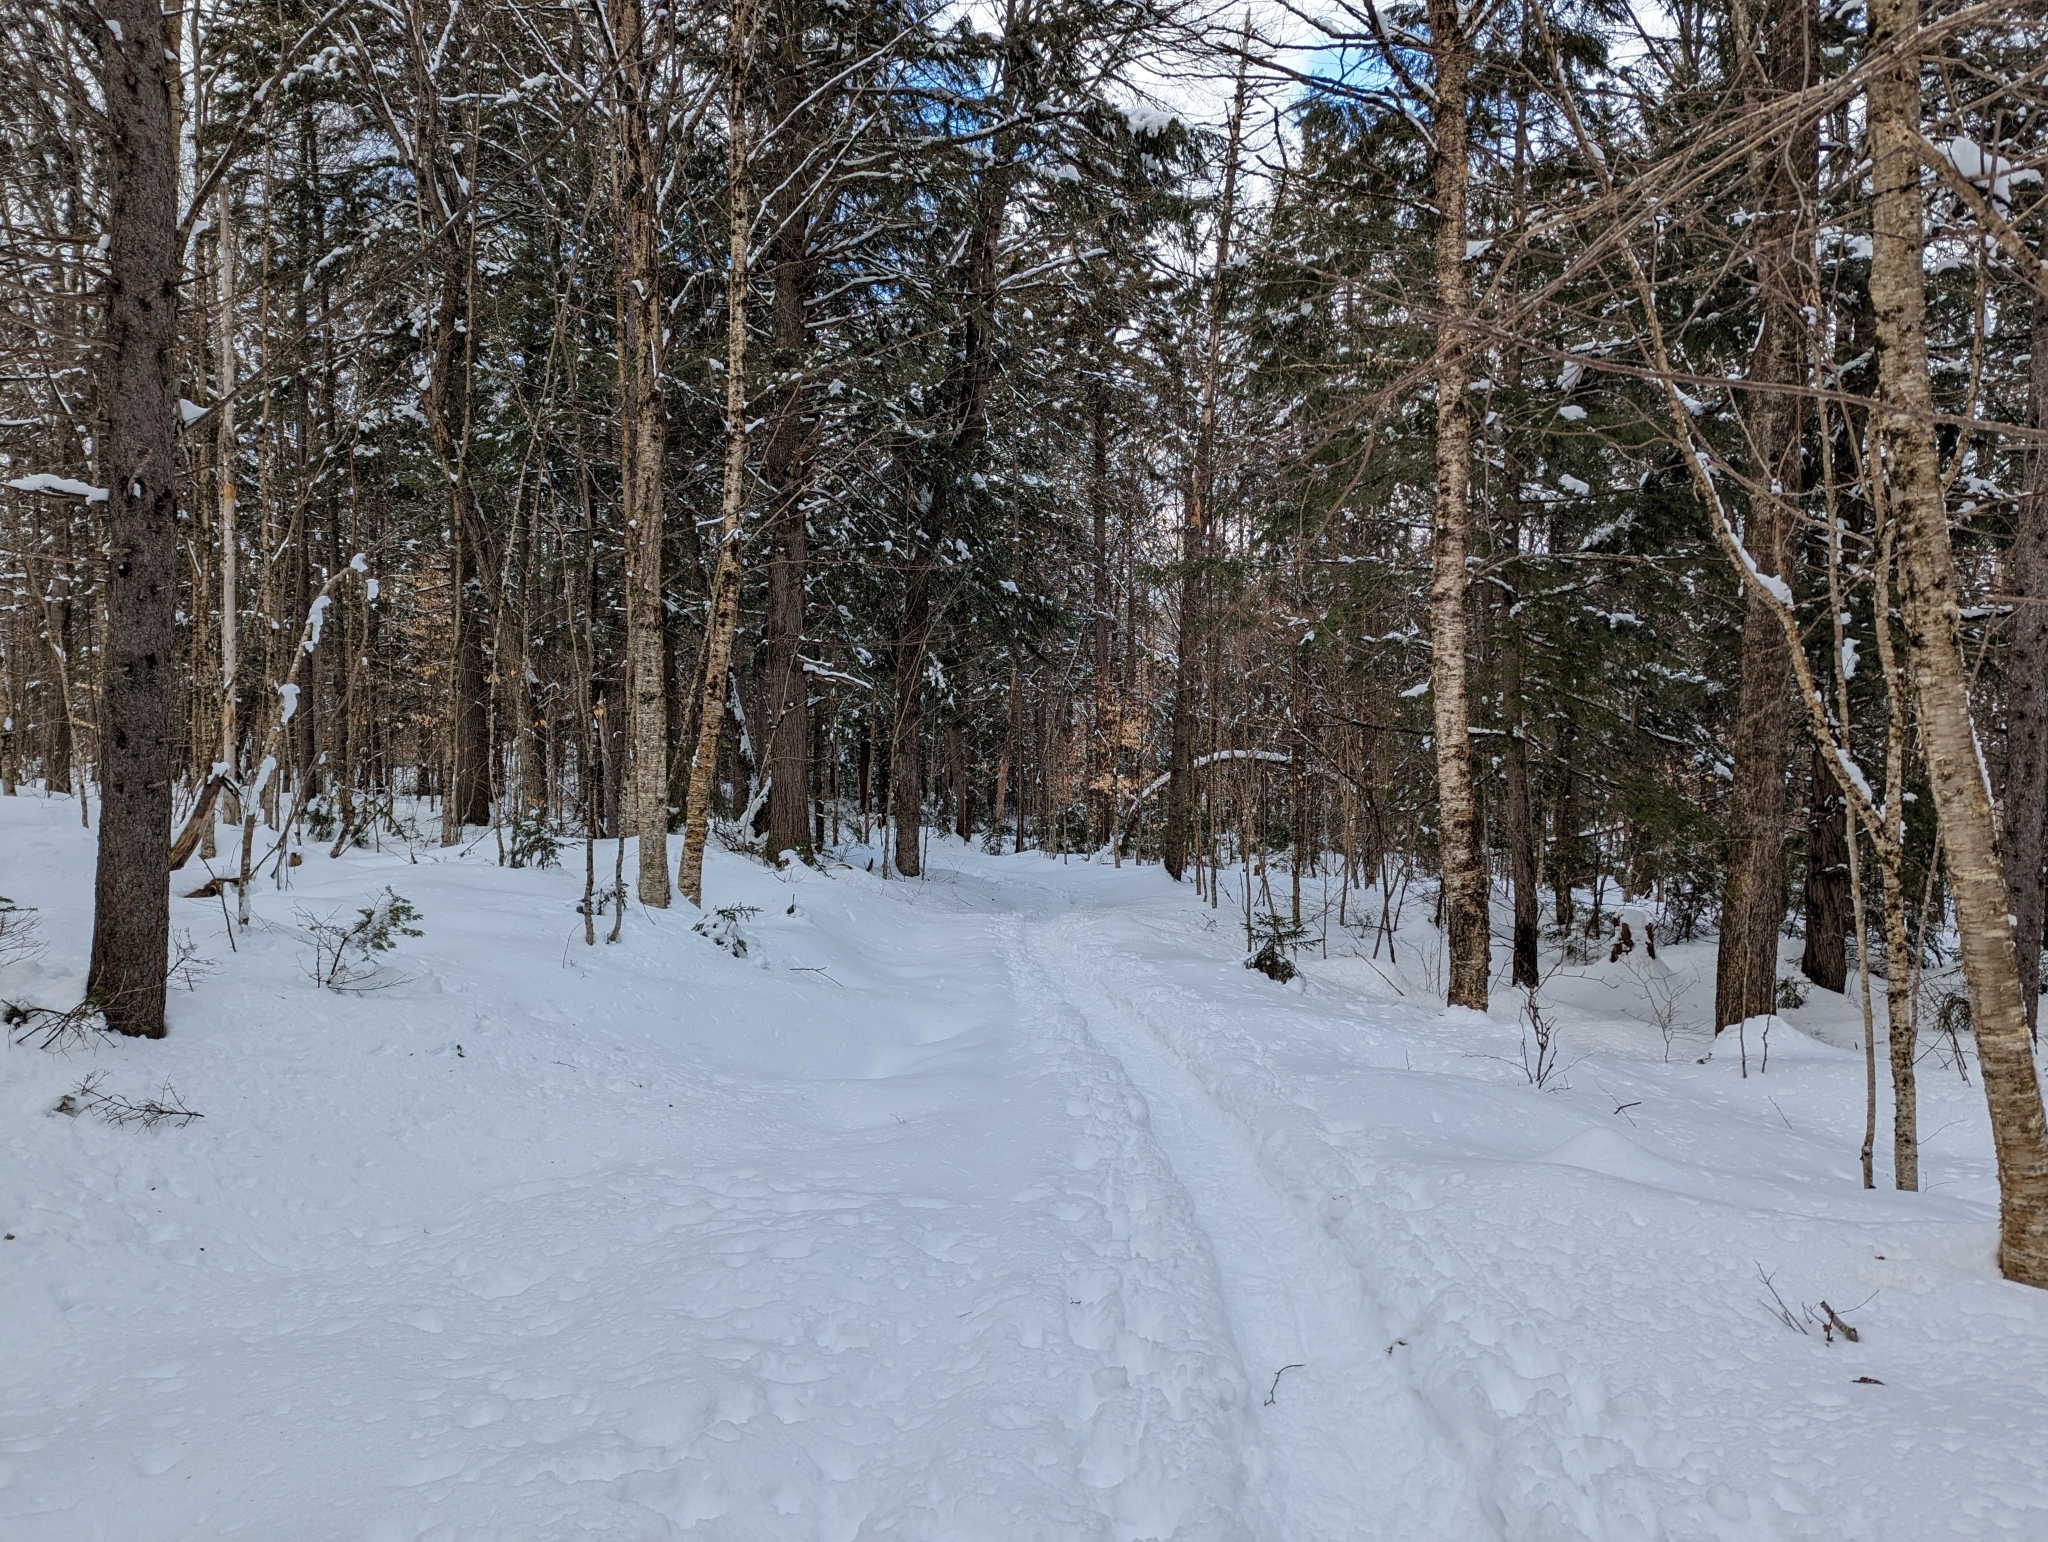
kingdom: Plantae
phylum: Tracheophyta
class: Magnoliopsida
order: Fagales
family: Betulaceae
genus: Betula
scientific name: Betula alleghaniensis
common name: Yellow birch
